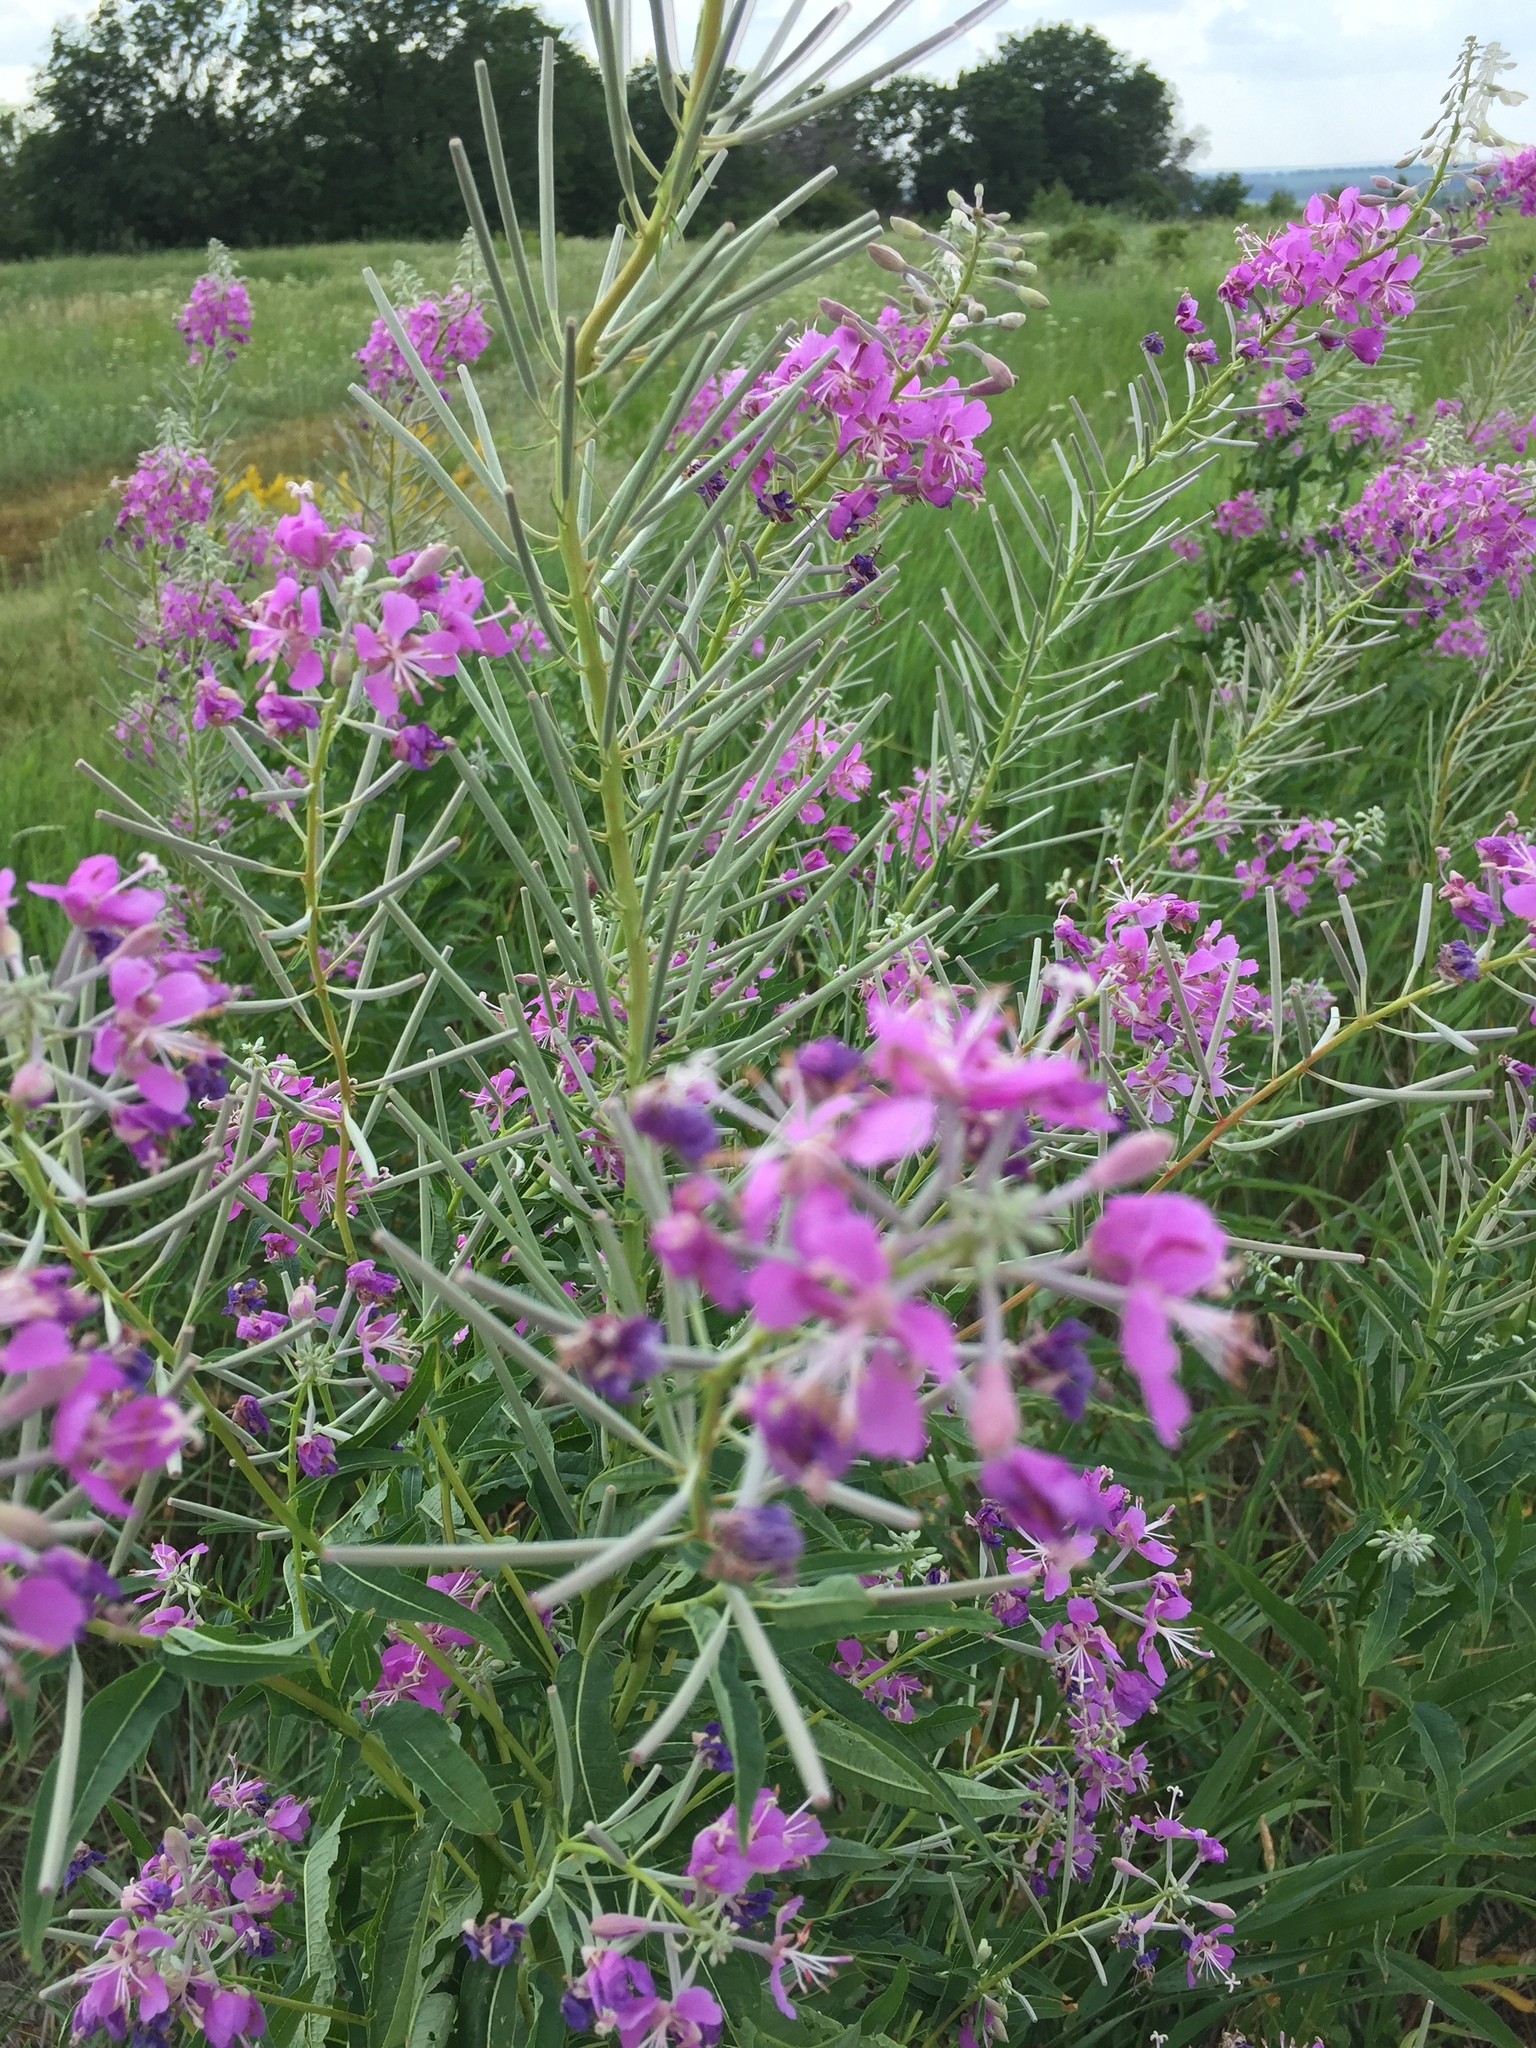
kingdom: Plantae
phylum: Tracheophyta
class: Magnoliopsida
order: Myrtales
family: Onagraceae
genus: Chamaenerion
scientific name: Chamaenerion angustifolium
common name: Fireweed
